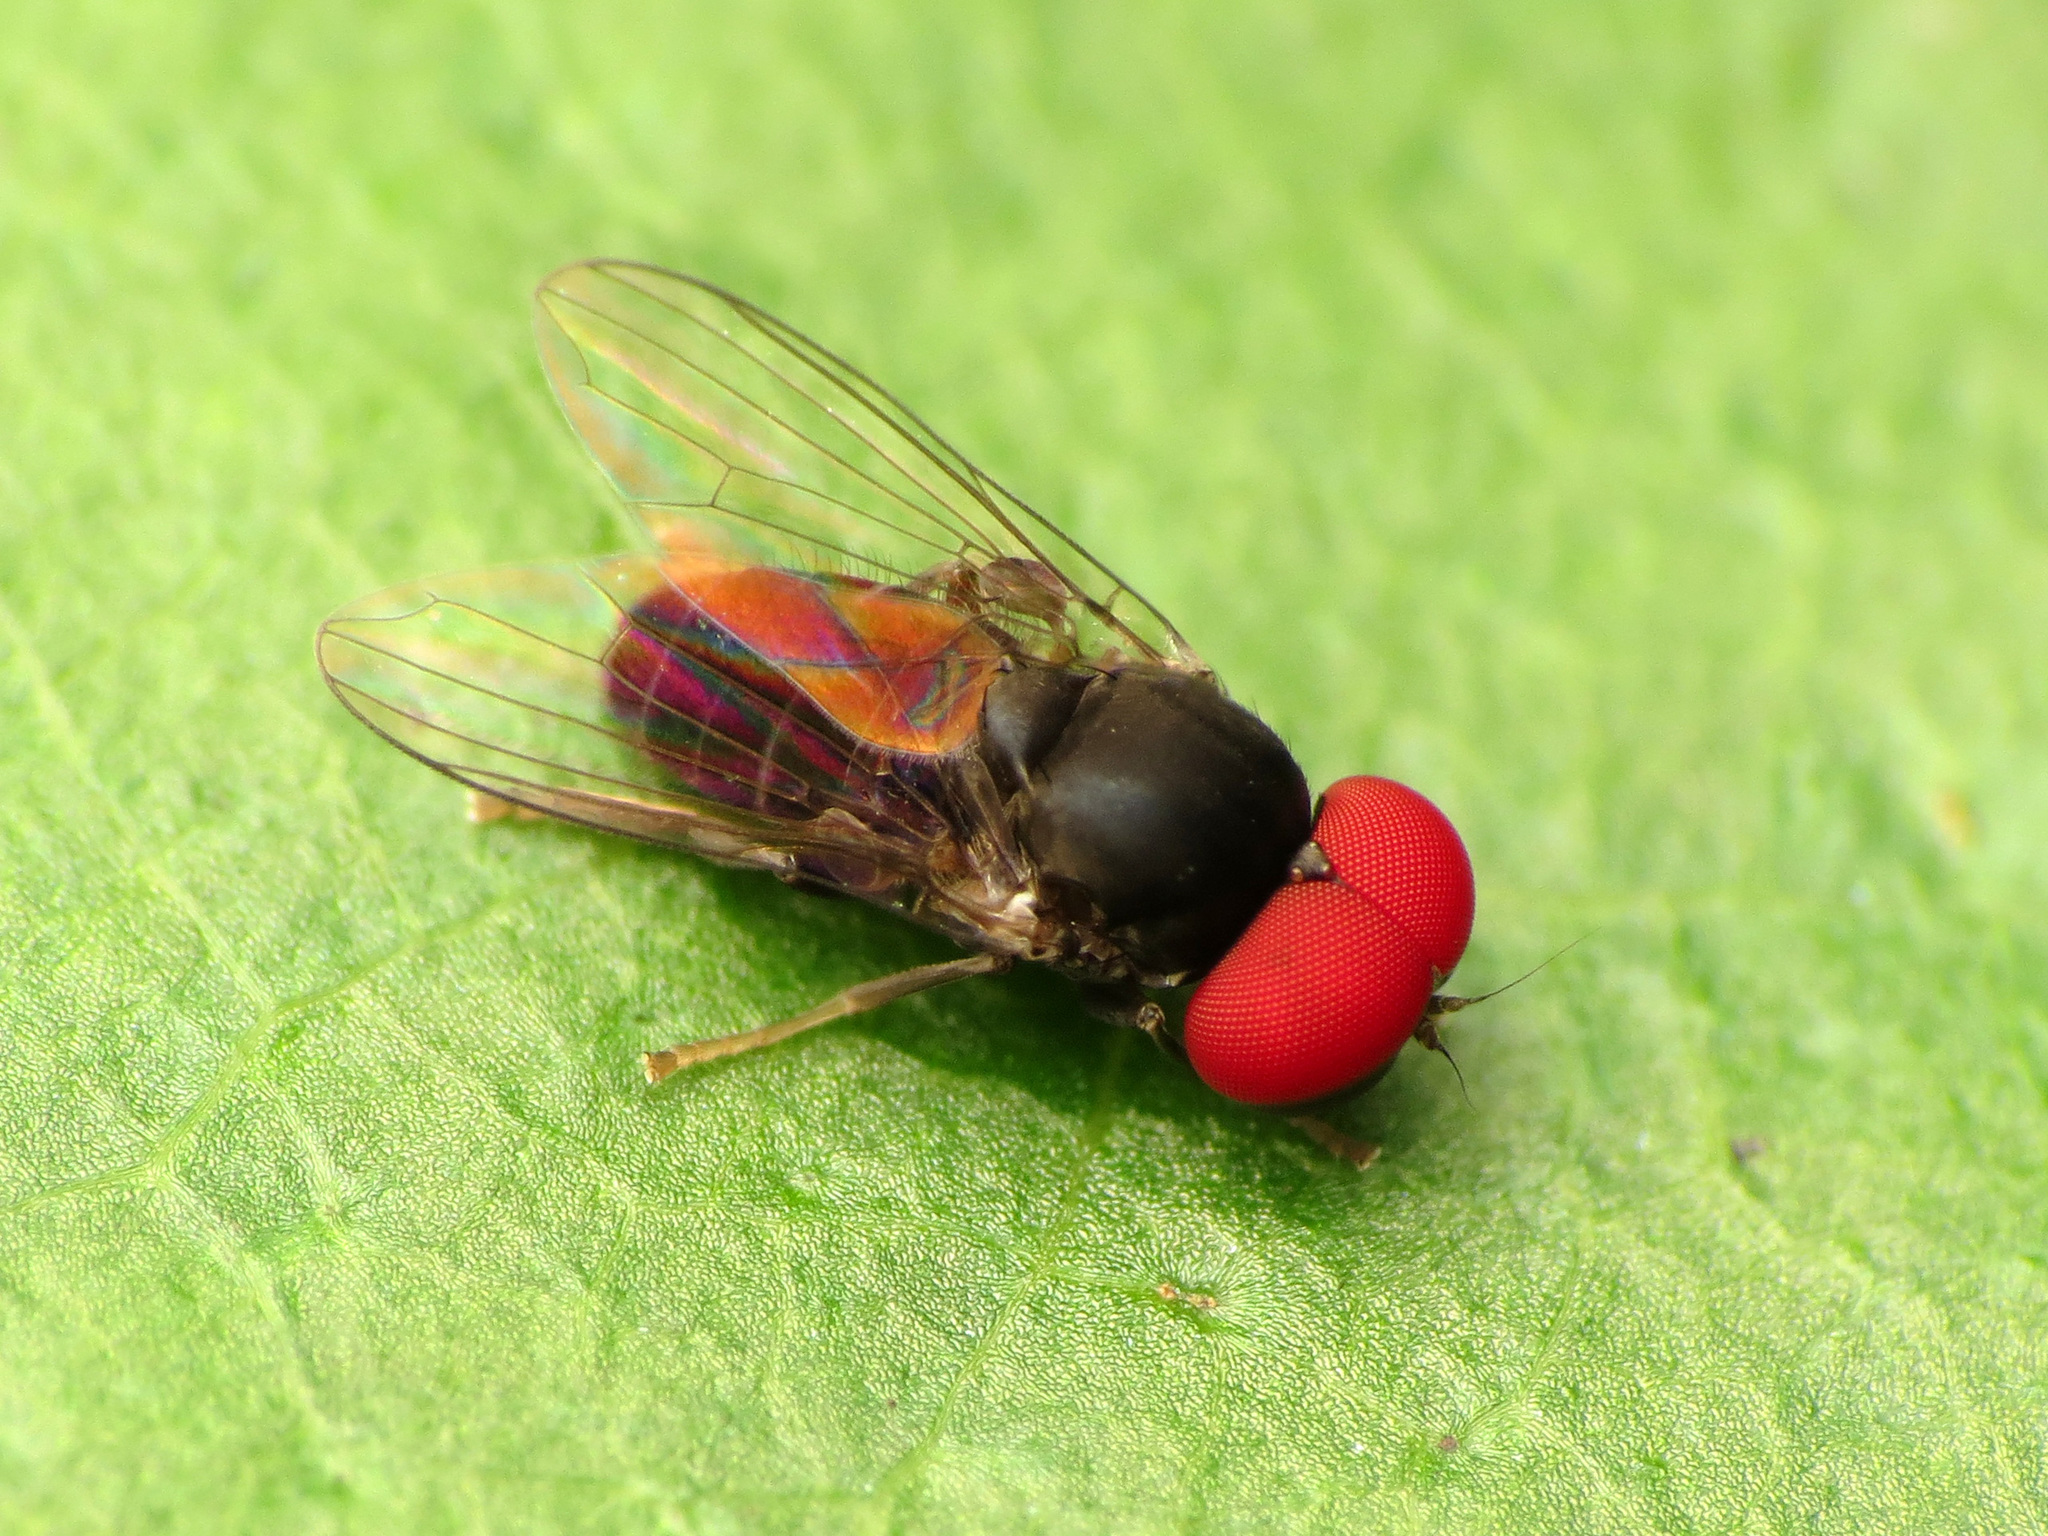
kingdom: Animalia
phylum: Arthropoda
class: Insecta
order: Diptera
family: Platypezidae
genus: Lindneromyia
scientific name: Lindneromyia flavicornis
